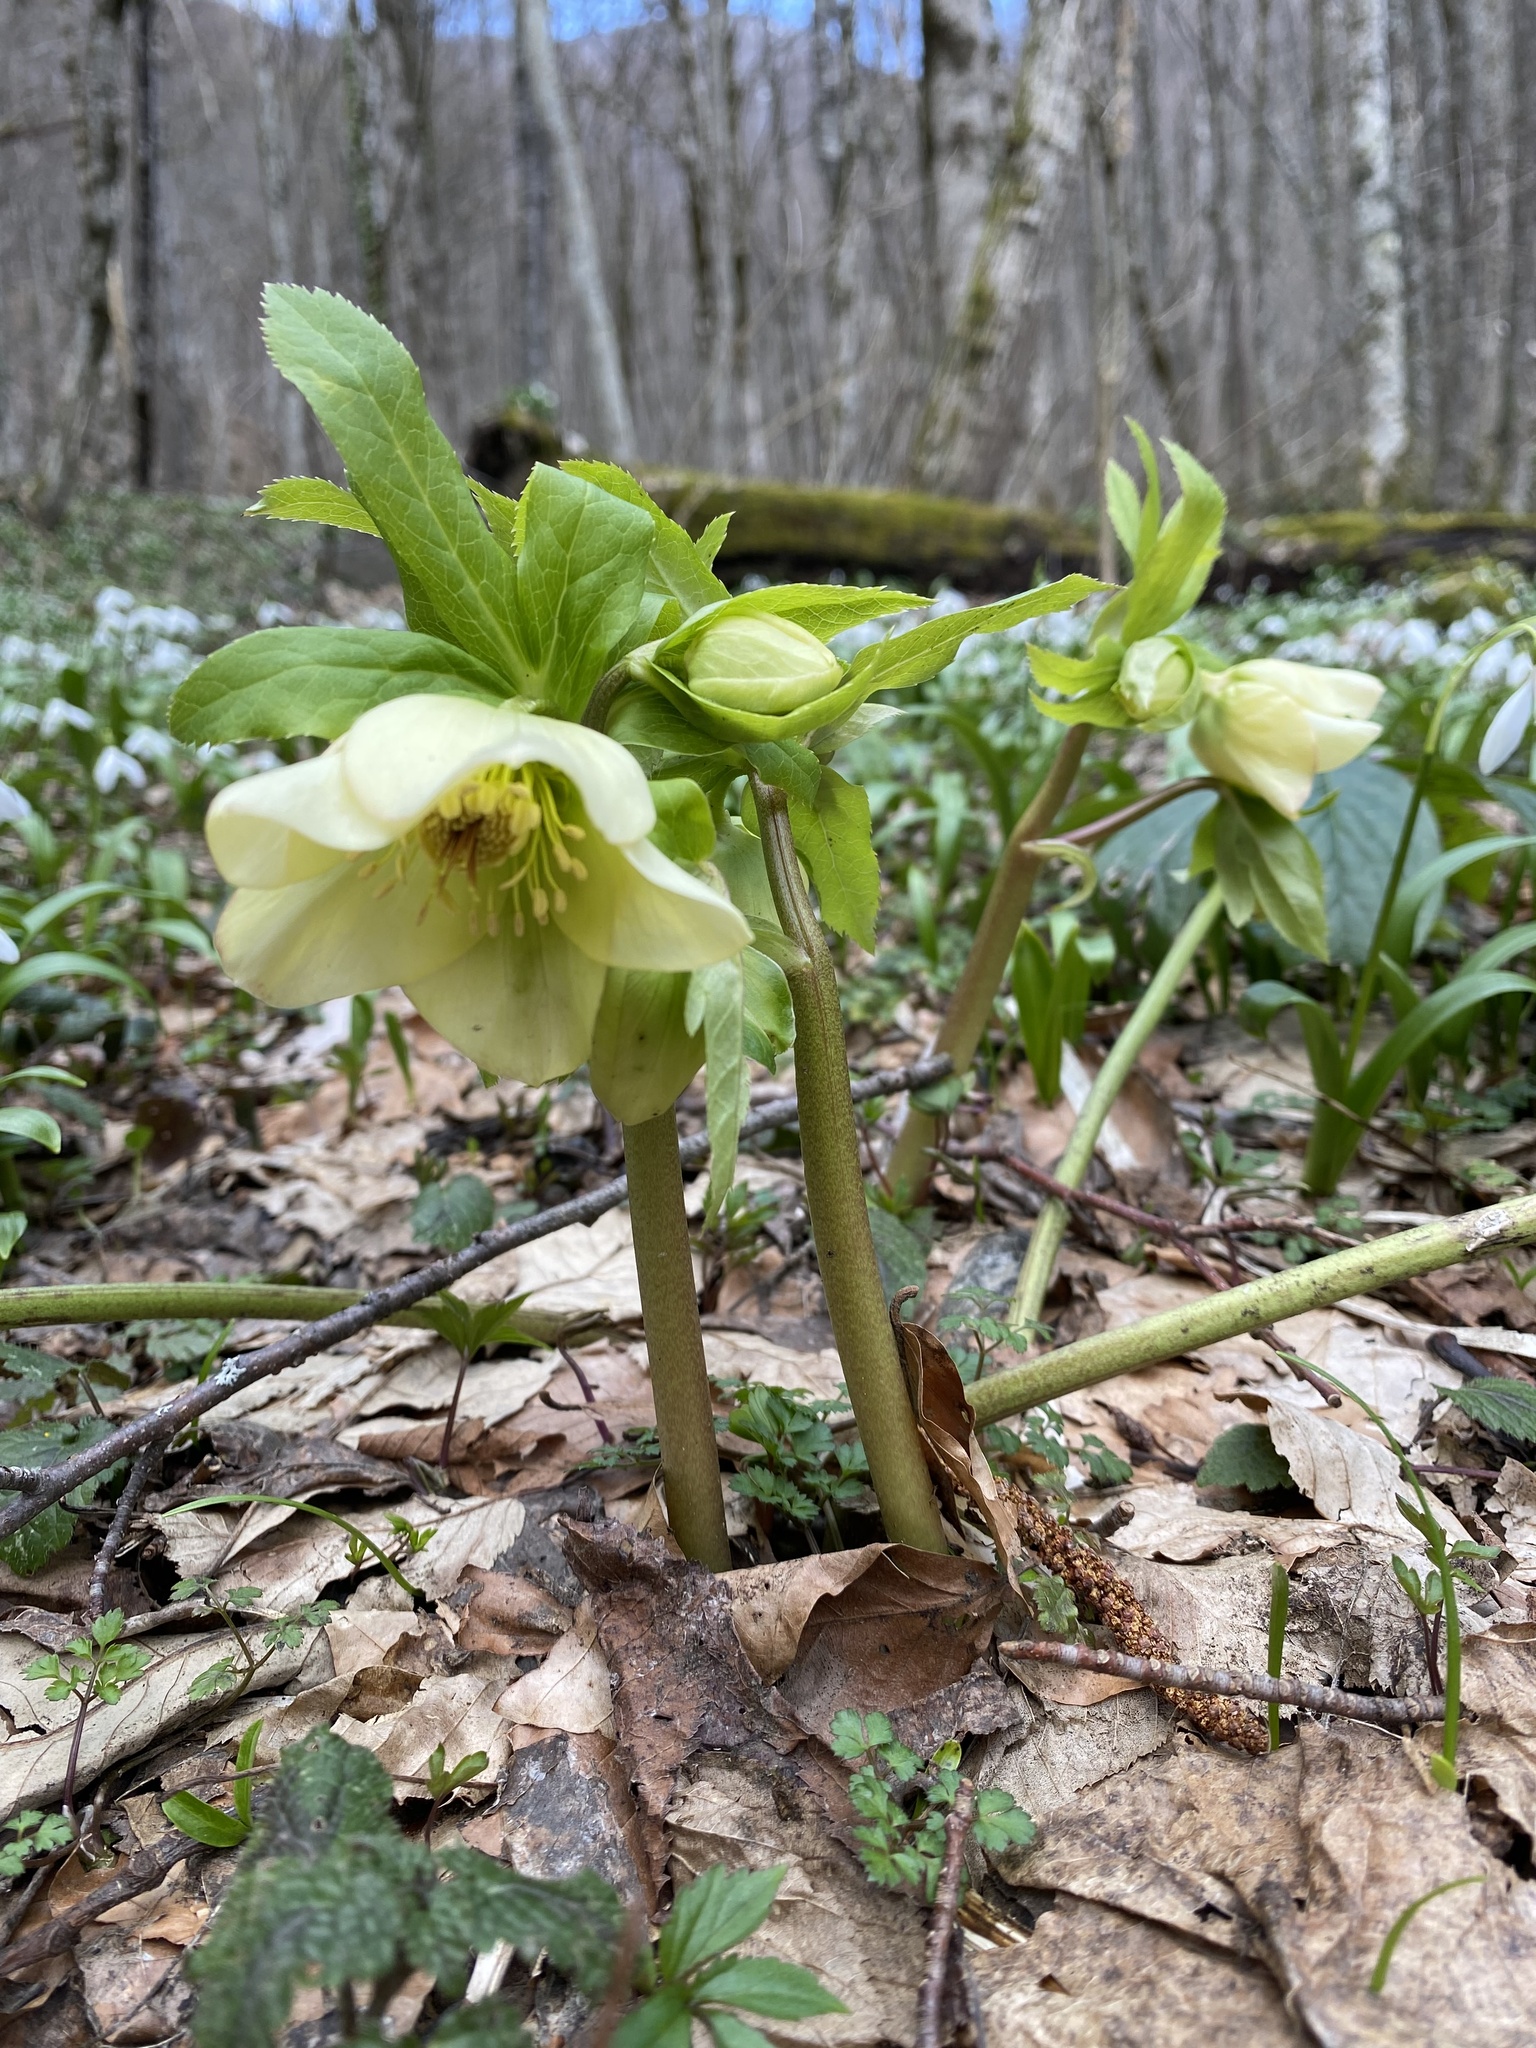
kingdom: Plantae
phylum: Tracheophyta
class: Magnoliopsida
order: Ranunculales
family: Ranunculaceae
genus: Helleborus
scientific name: Helleborus orientalis
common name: Lenten-rose
